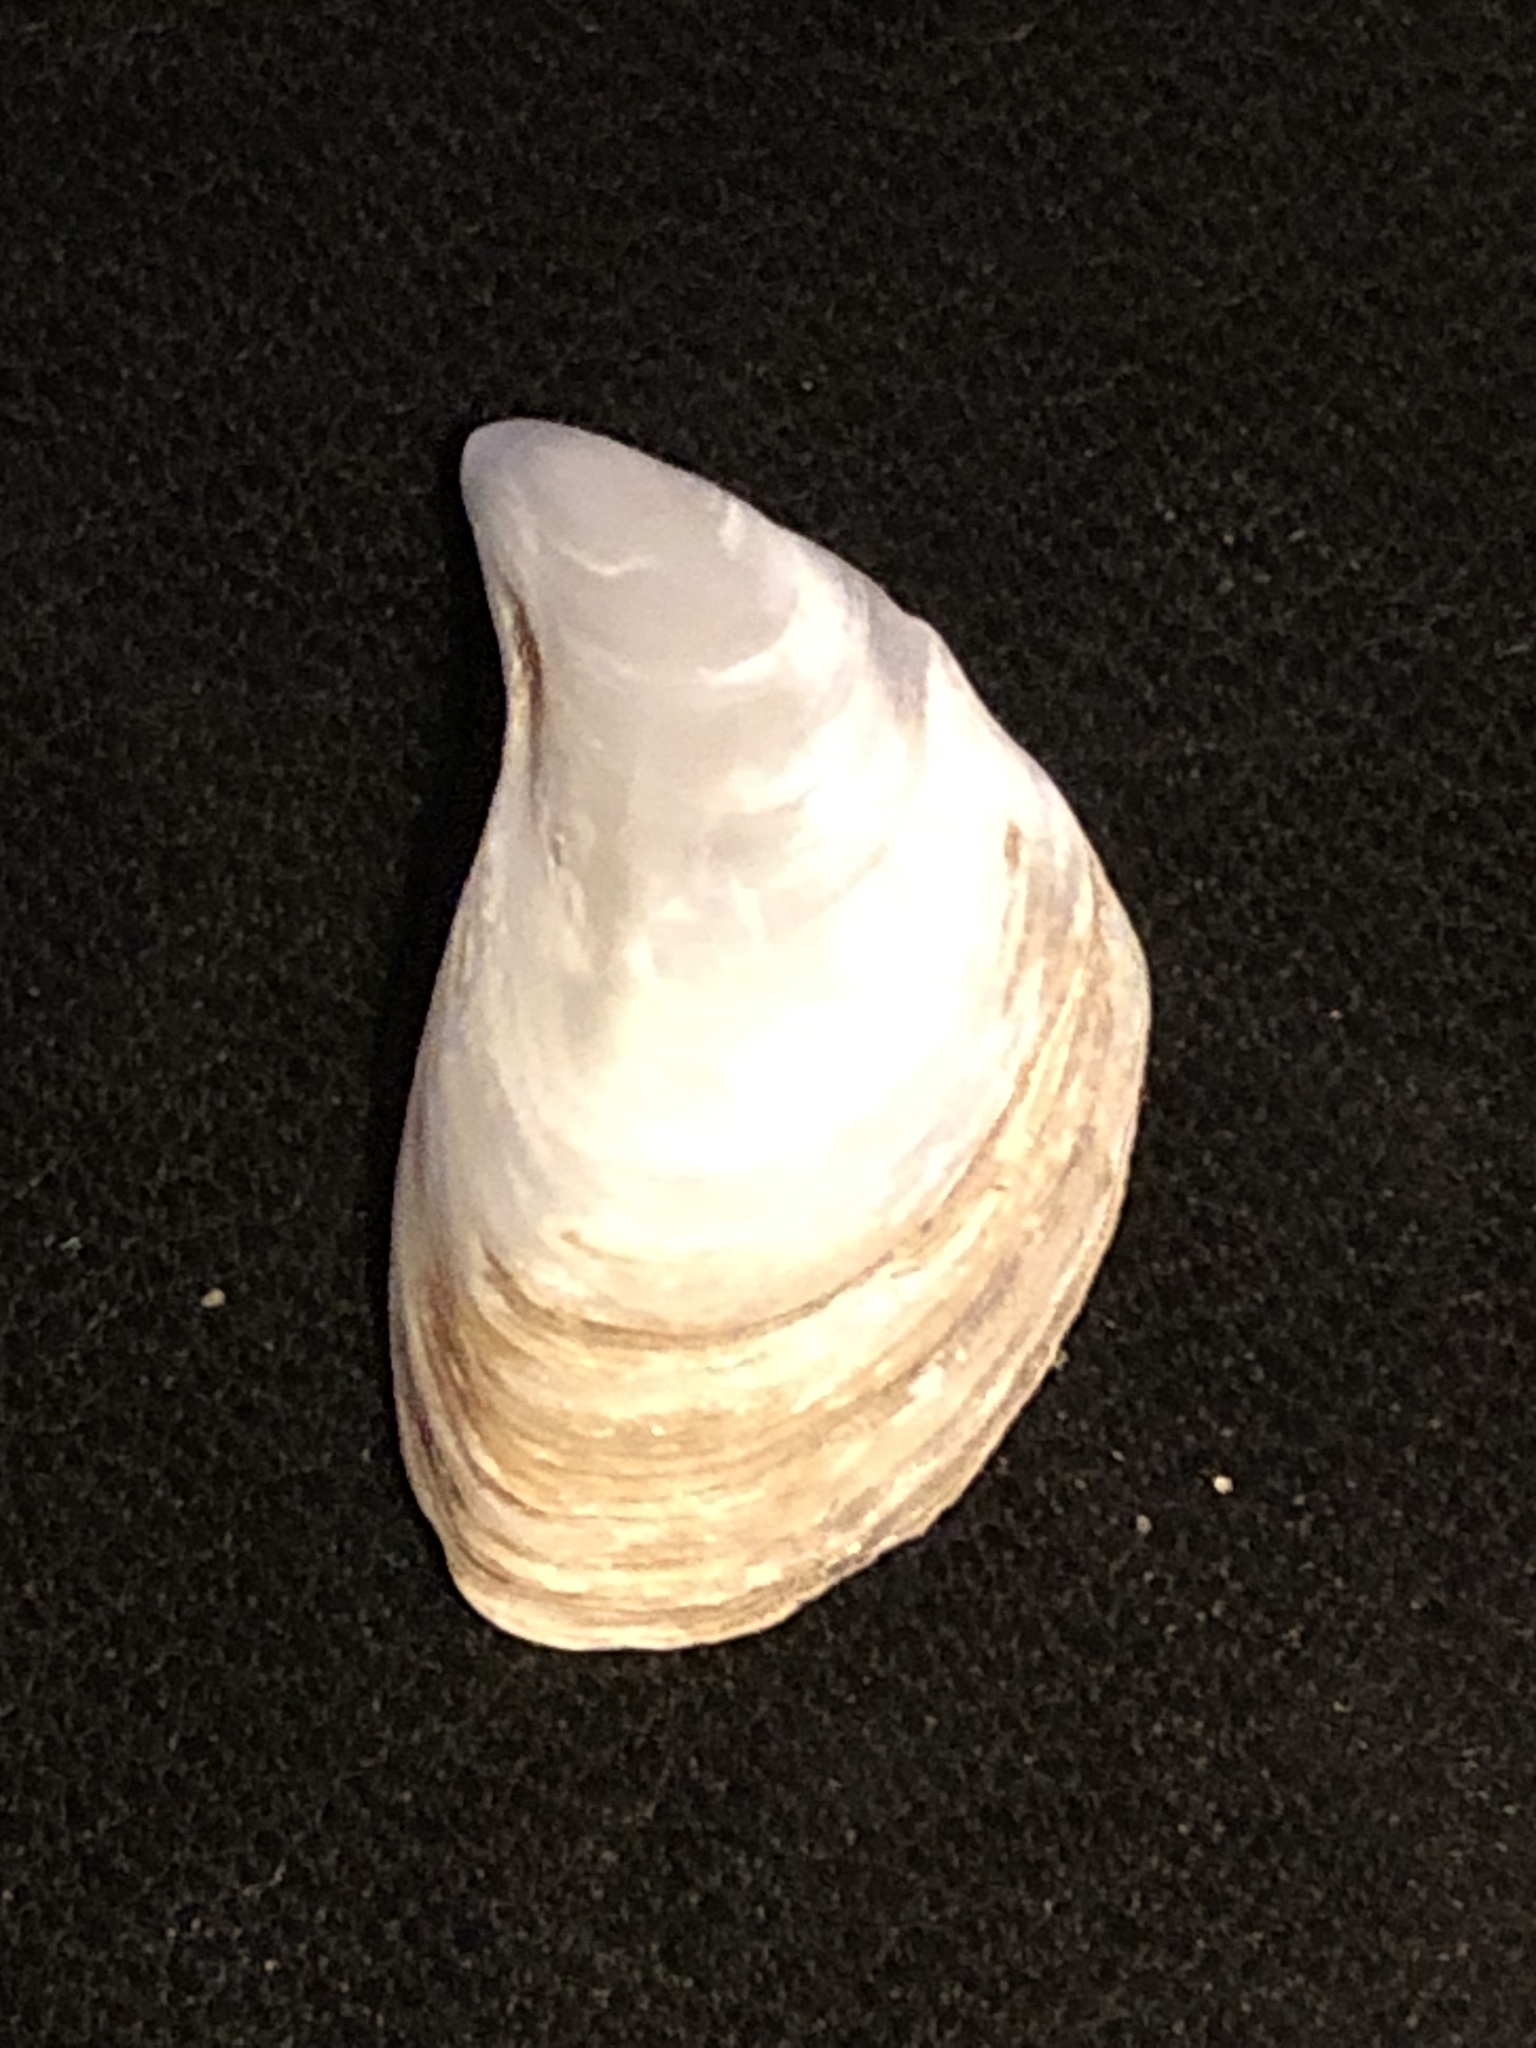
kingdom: Animalia
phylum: Mollusca
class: Bivalvia
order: Myida
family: Dreissenidae
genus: Dreissena
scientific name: Dreissena bugensis
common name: Quagga mussel
